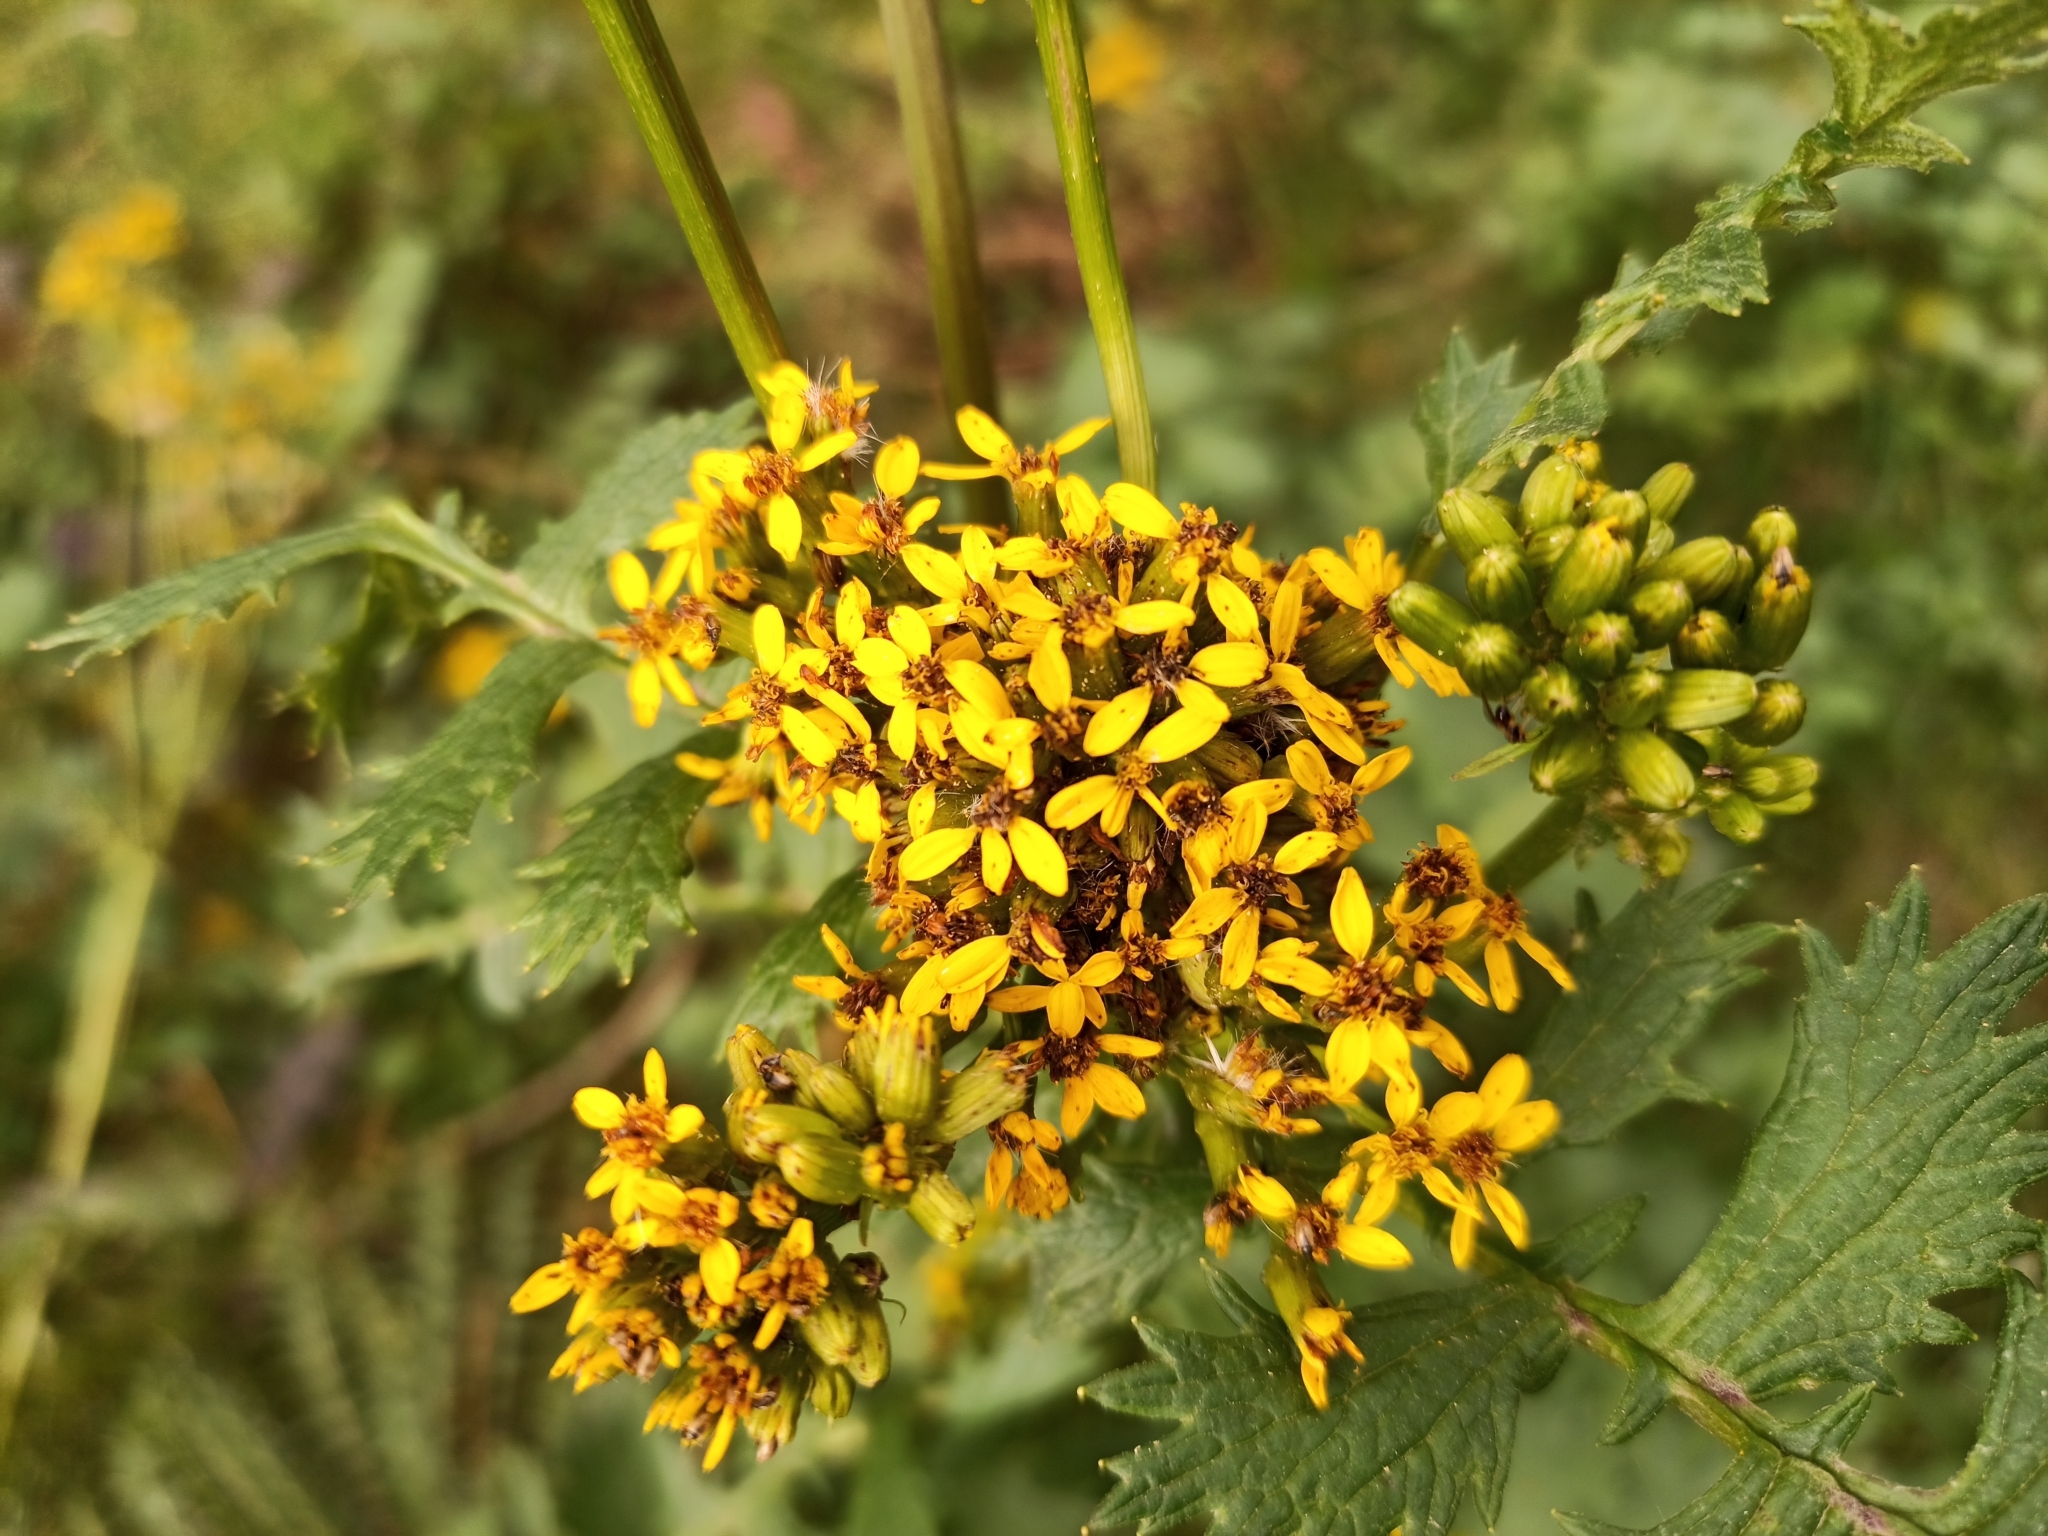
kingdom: Plantae
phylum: Tracheophyta
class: Magnoliopsida
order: Asterales
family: Asteraceae
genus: Packera
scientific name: Packera sanguisorbae
